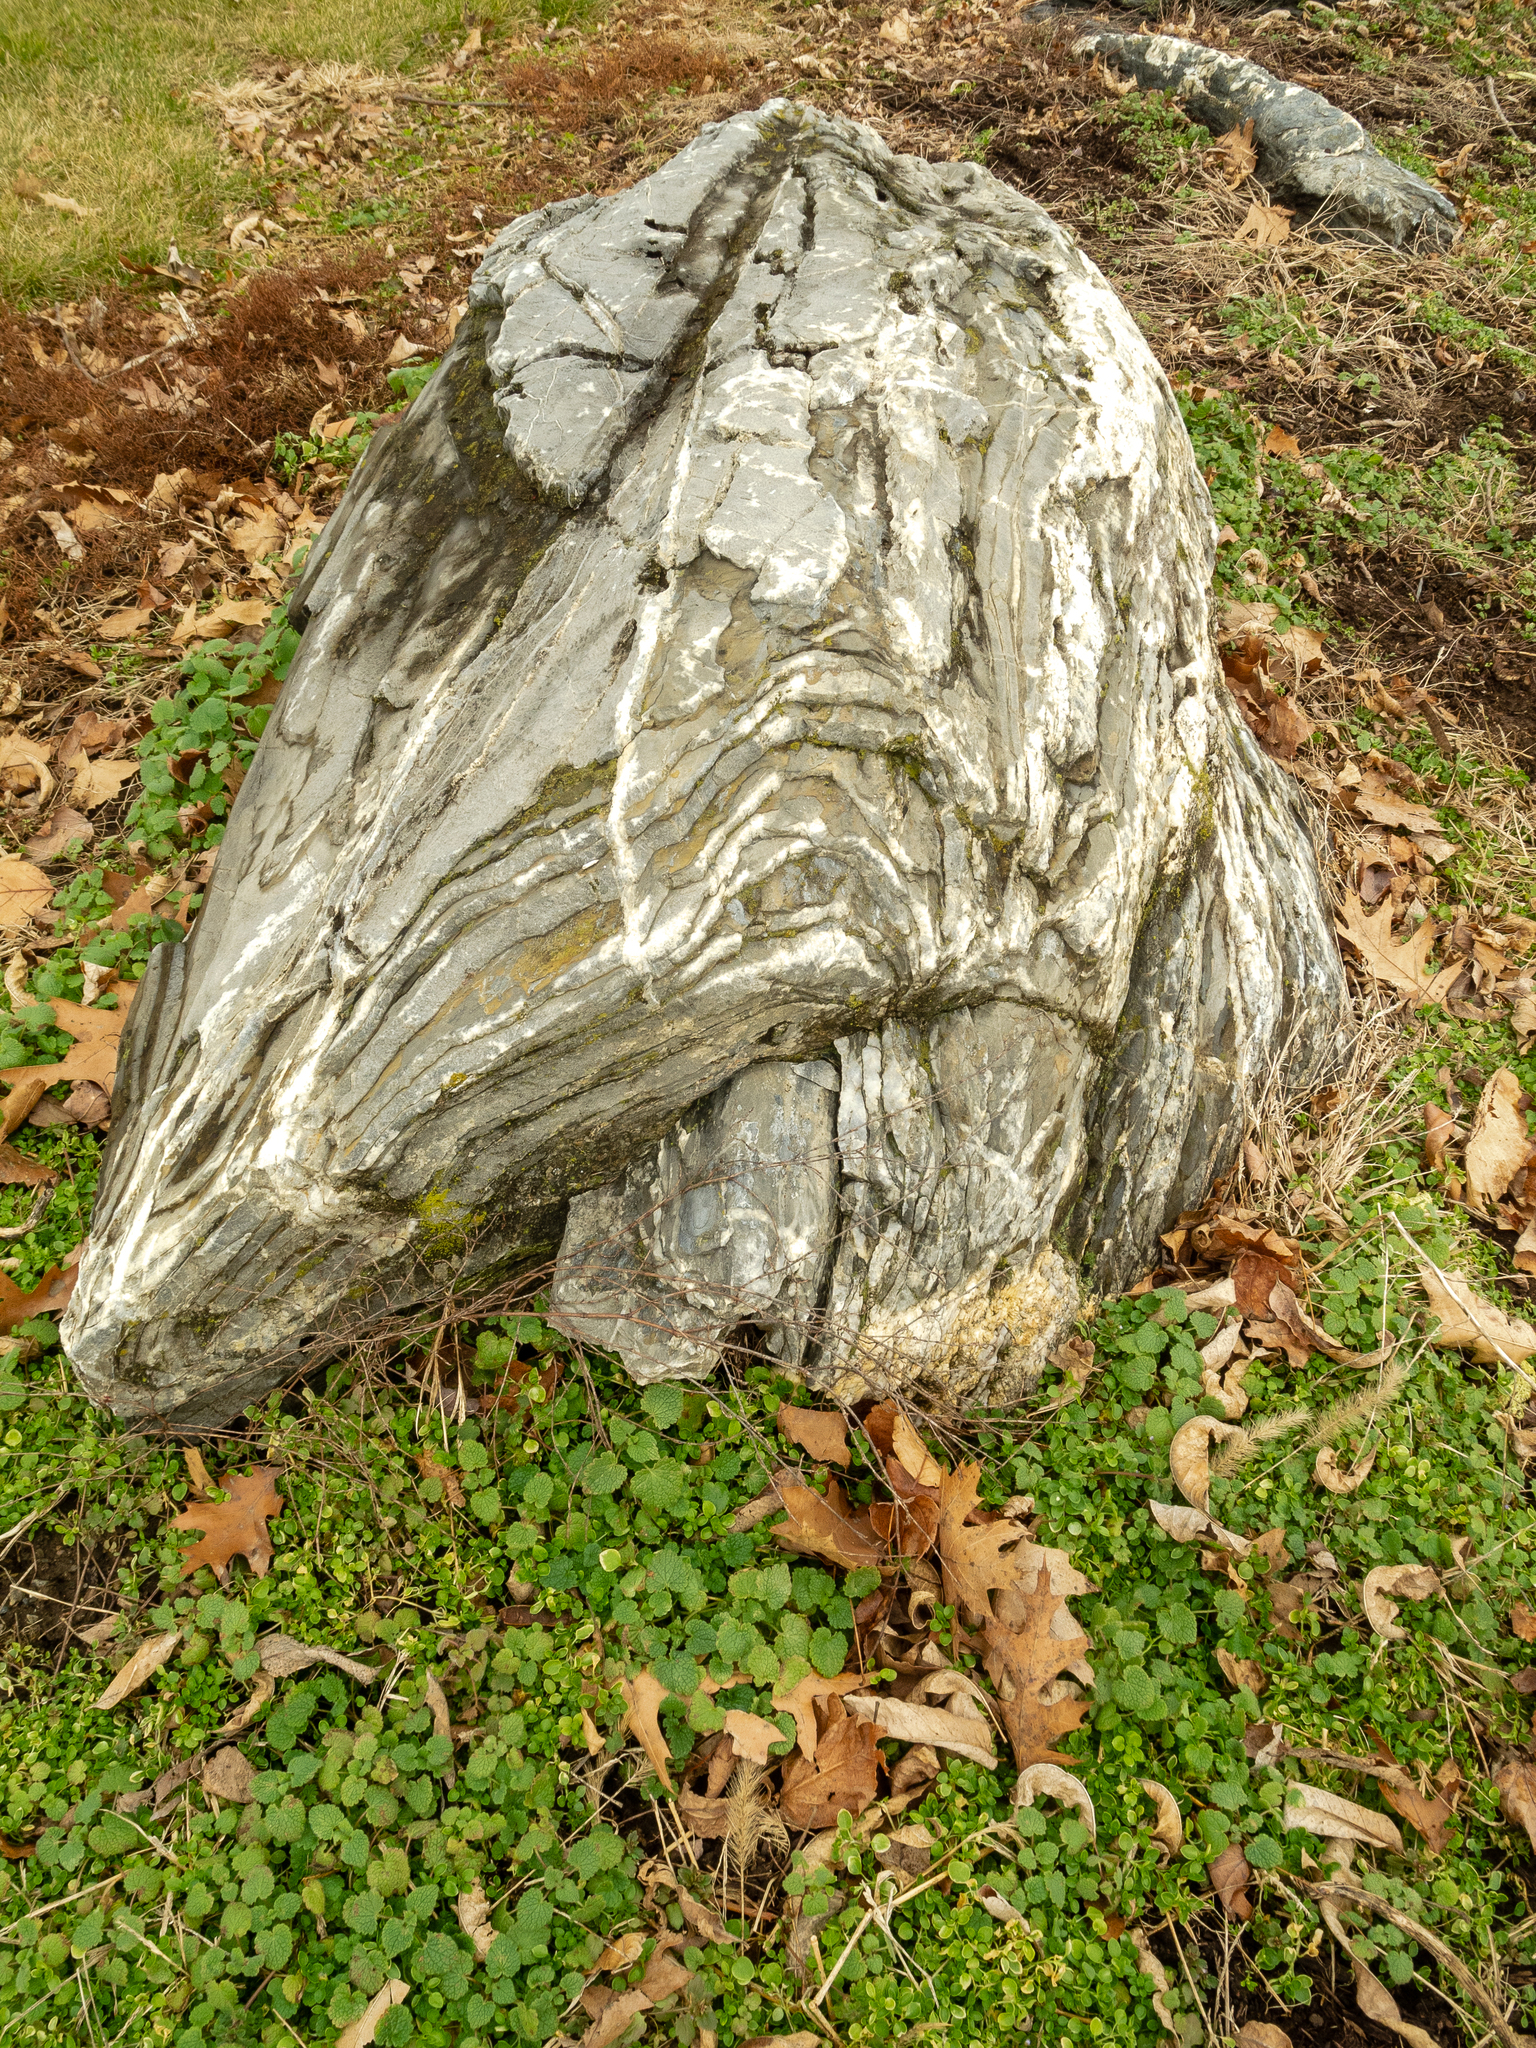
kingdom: Plantae
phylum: Tracheophyta
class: Magnoliopsida
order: Lamiales
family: Lamiaceae
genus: Lamium
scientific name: Lamium purpureum
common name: Red dead-nettle
